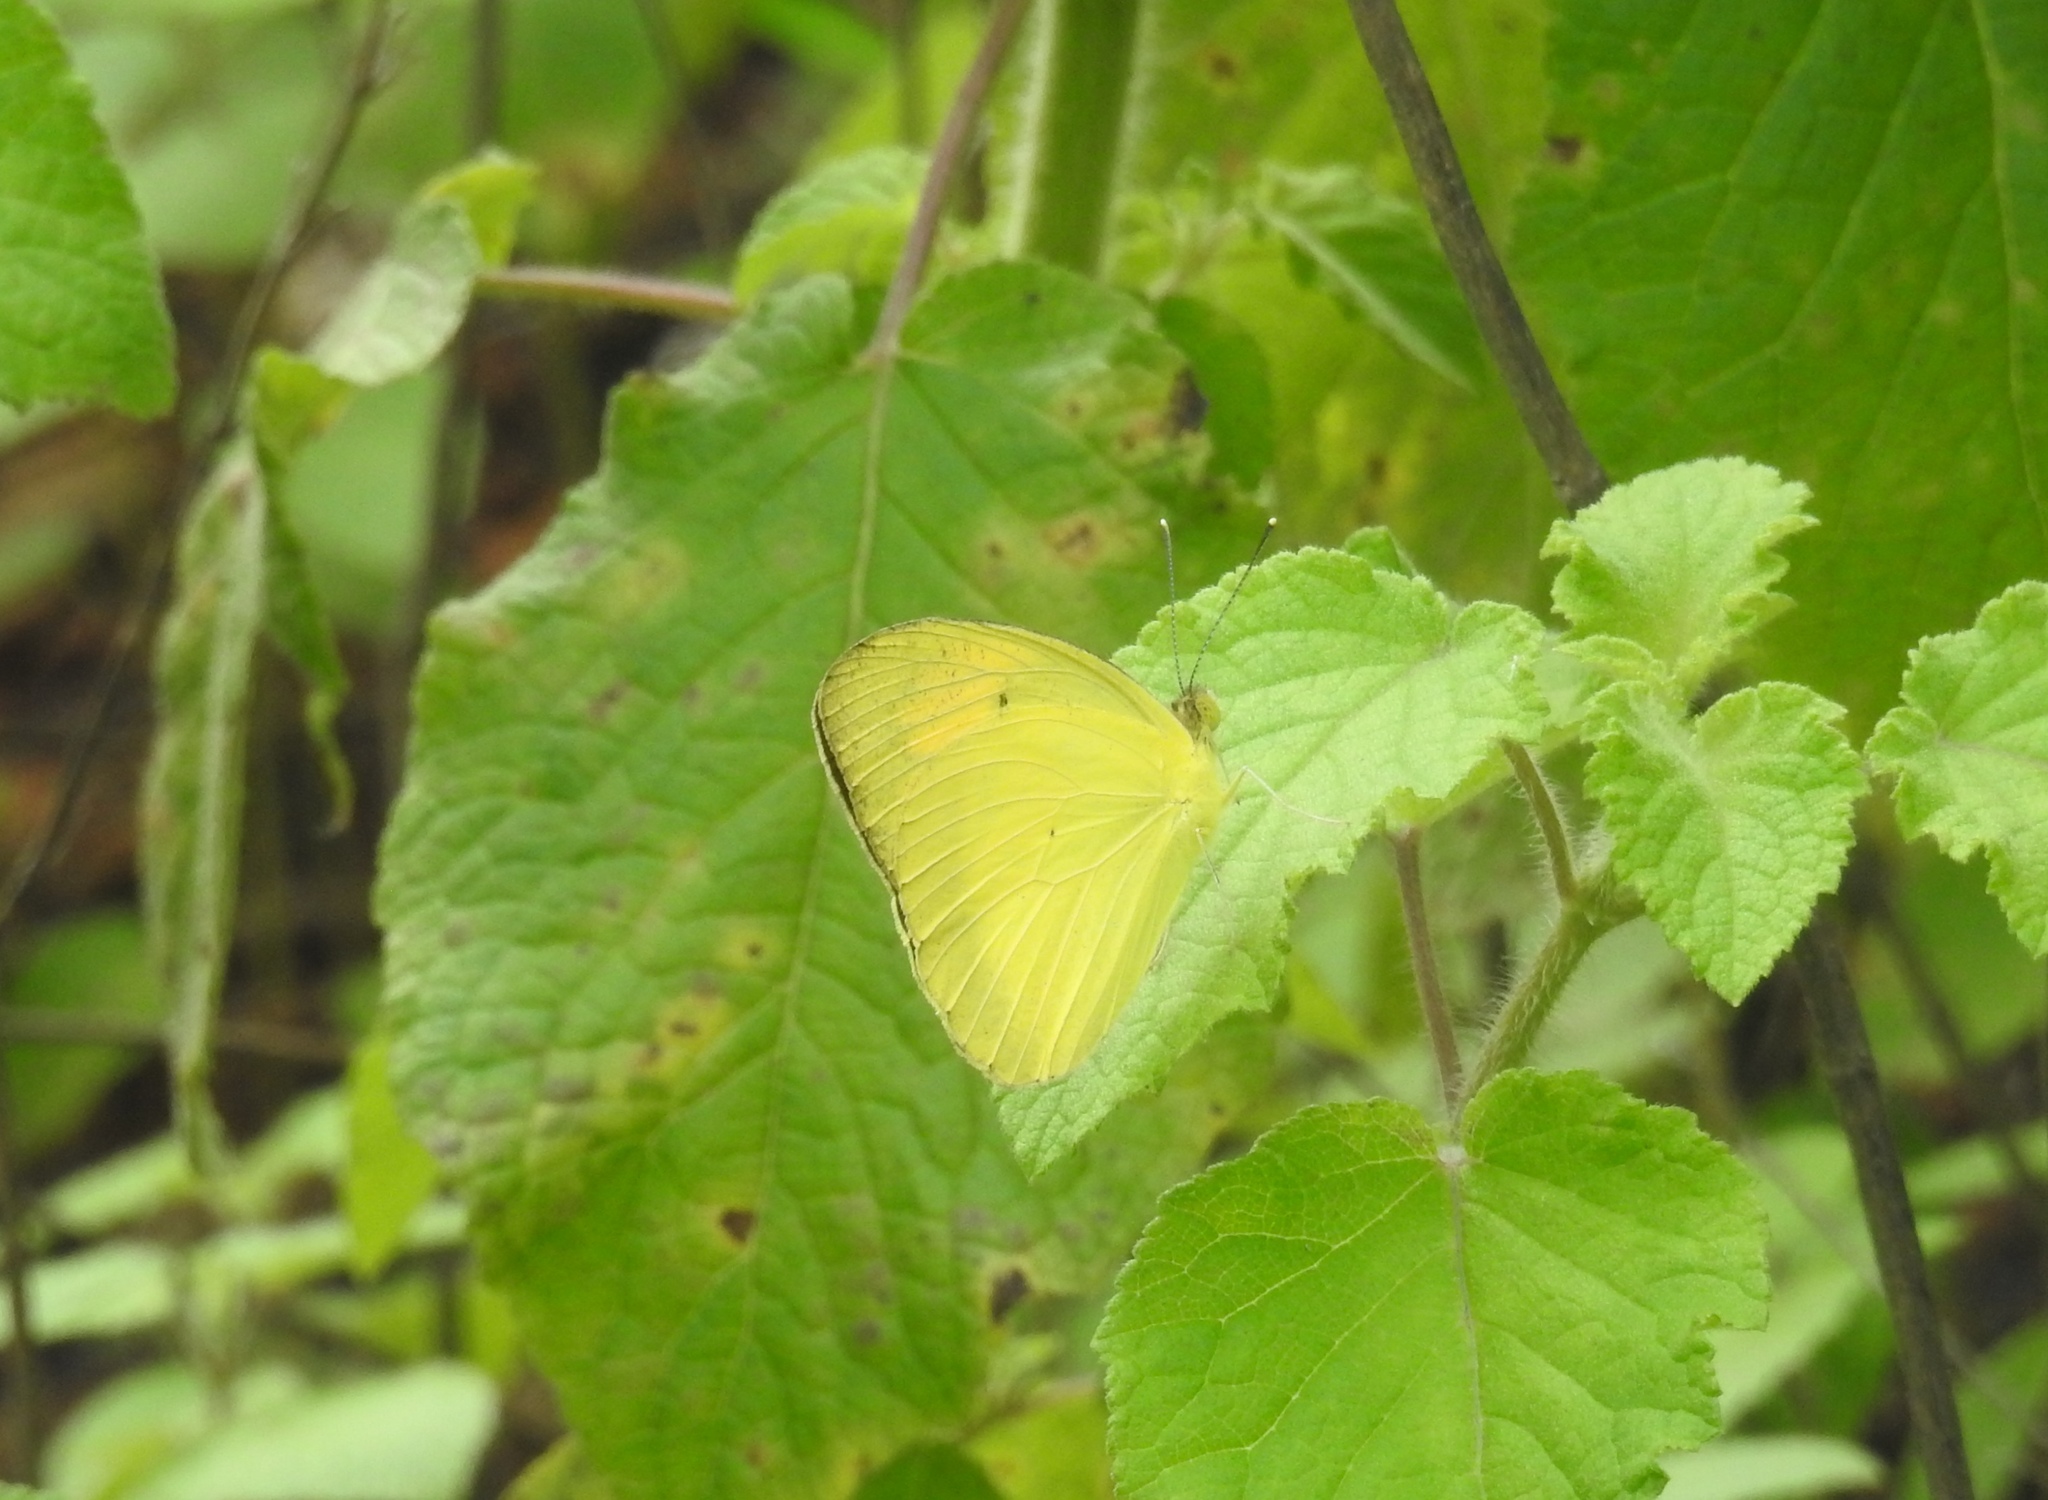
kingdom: Animalia
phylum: Arthropoda
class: Insecta
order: Lepidoptera
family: Pieridae
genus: Ixias
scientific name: Ixias pyrene
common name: Yellow orange tip
